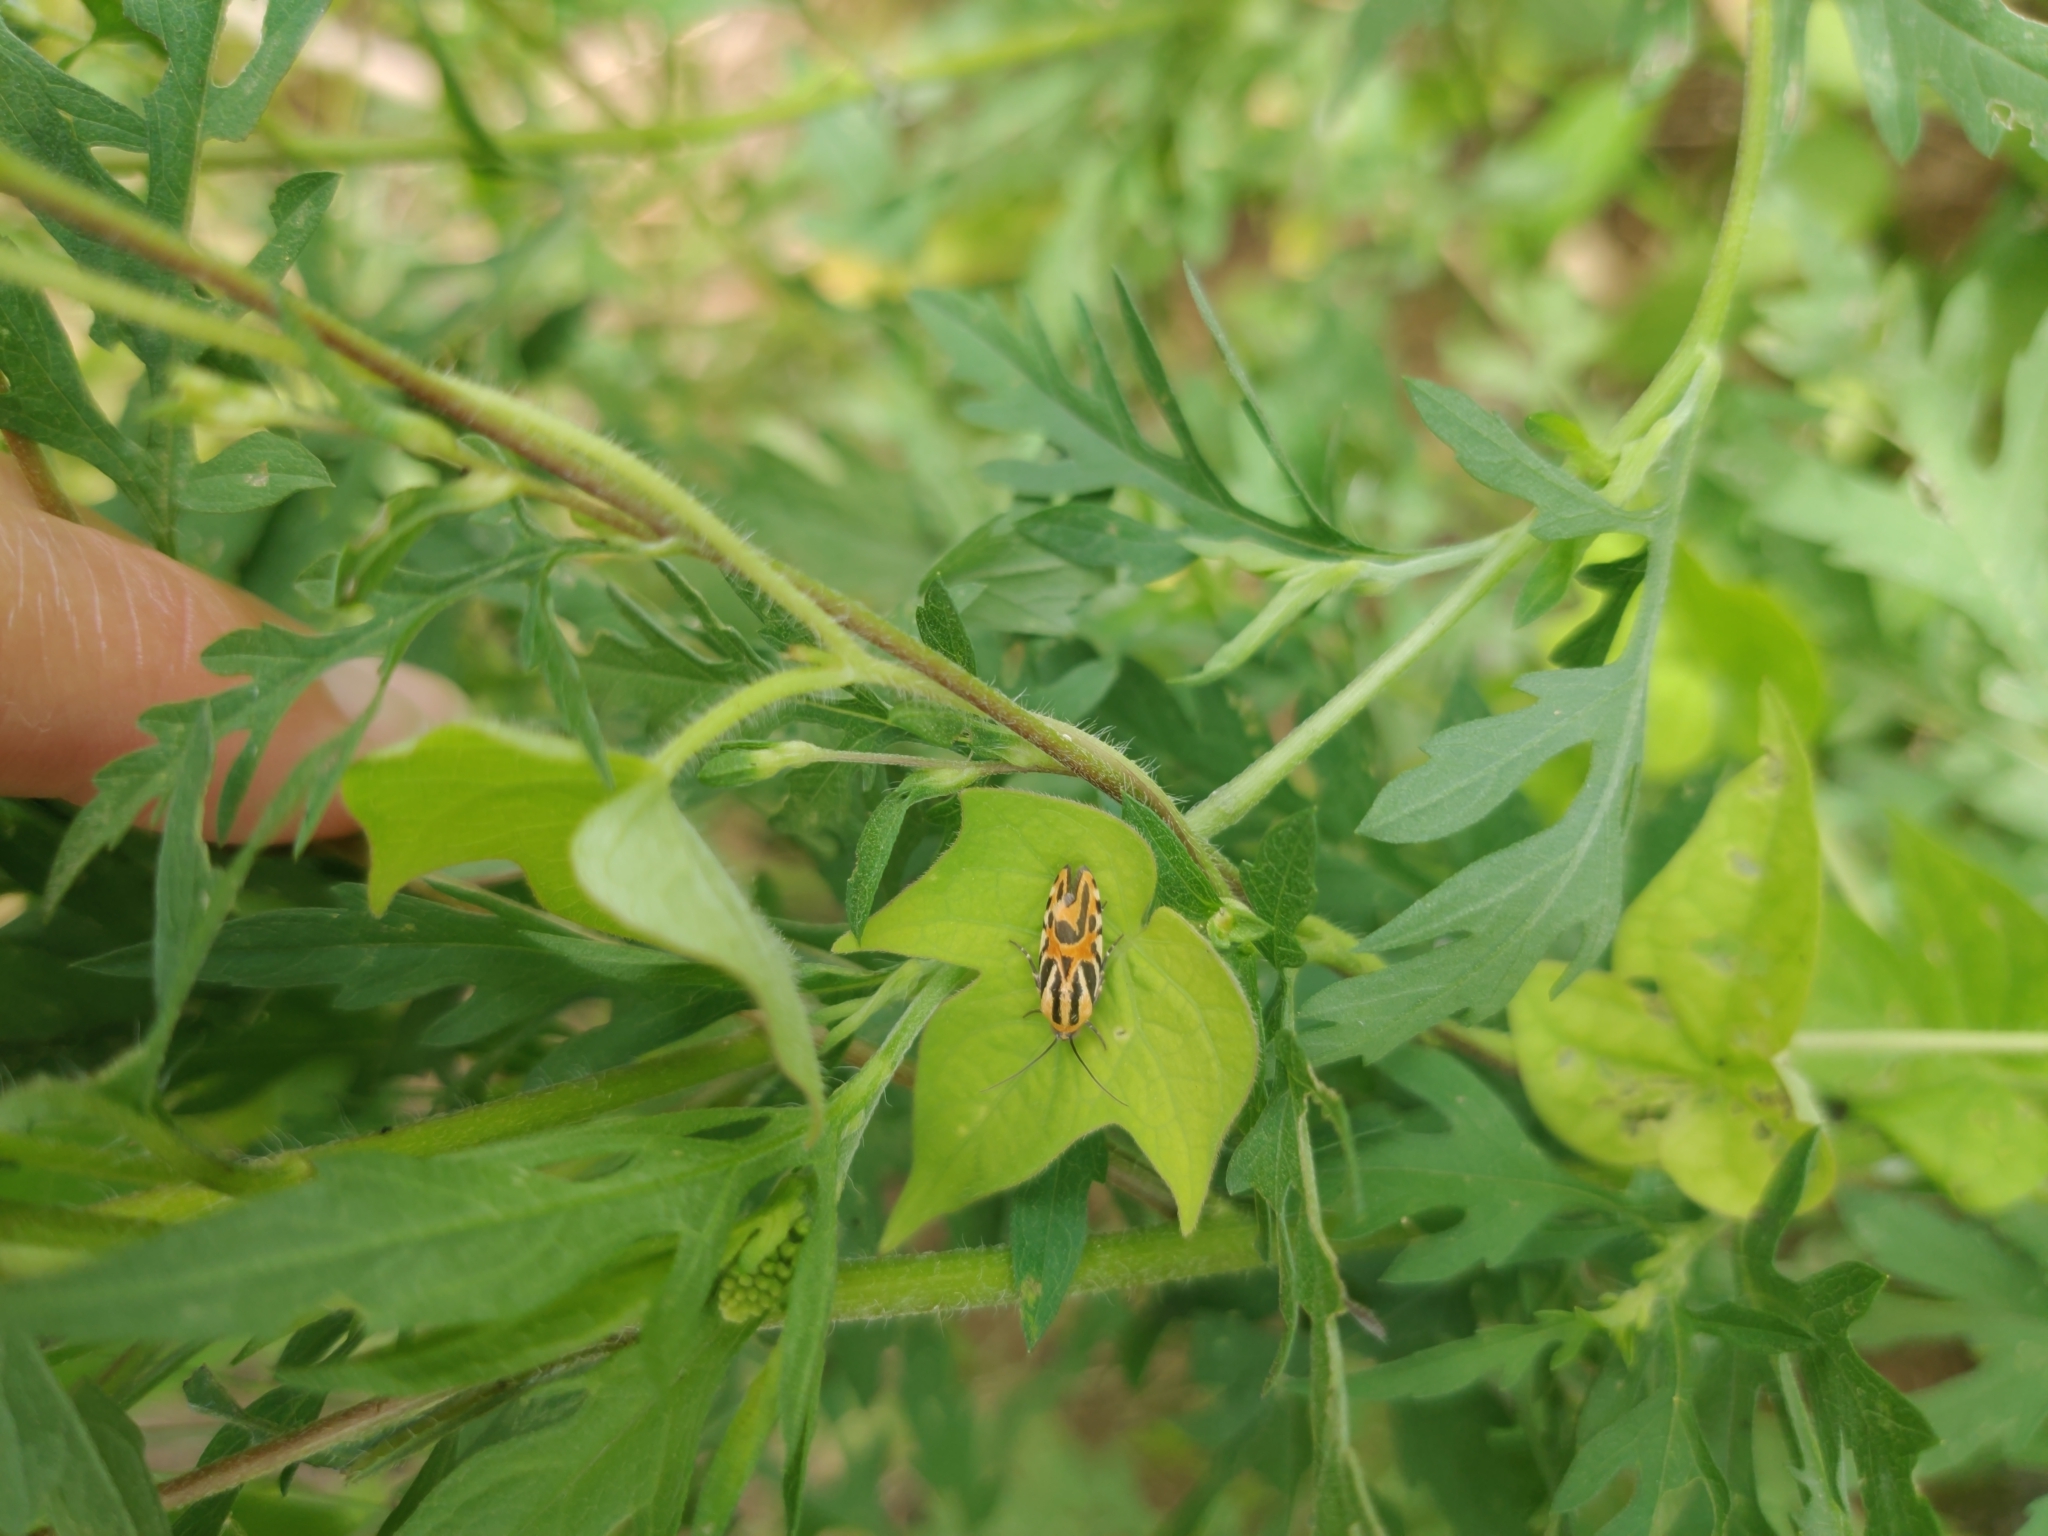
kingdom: Animalia
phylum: Arthropoda
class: Insecta
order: Lepidoptera
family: Noctuidae
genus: Acontia
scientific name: Acontia onagrus
